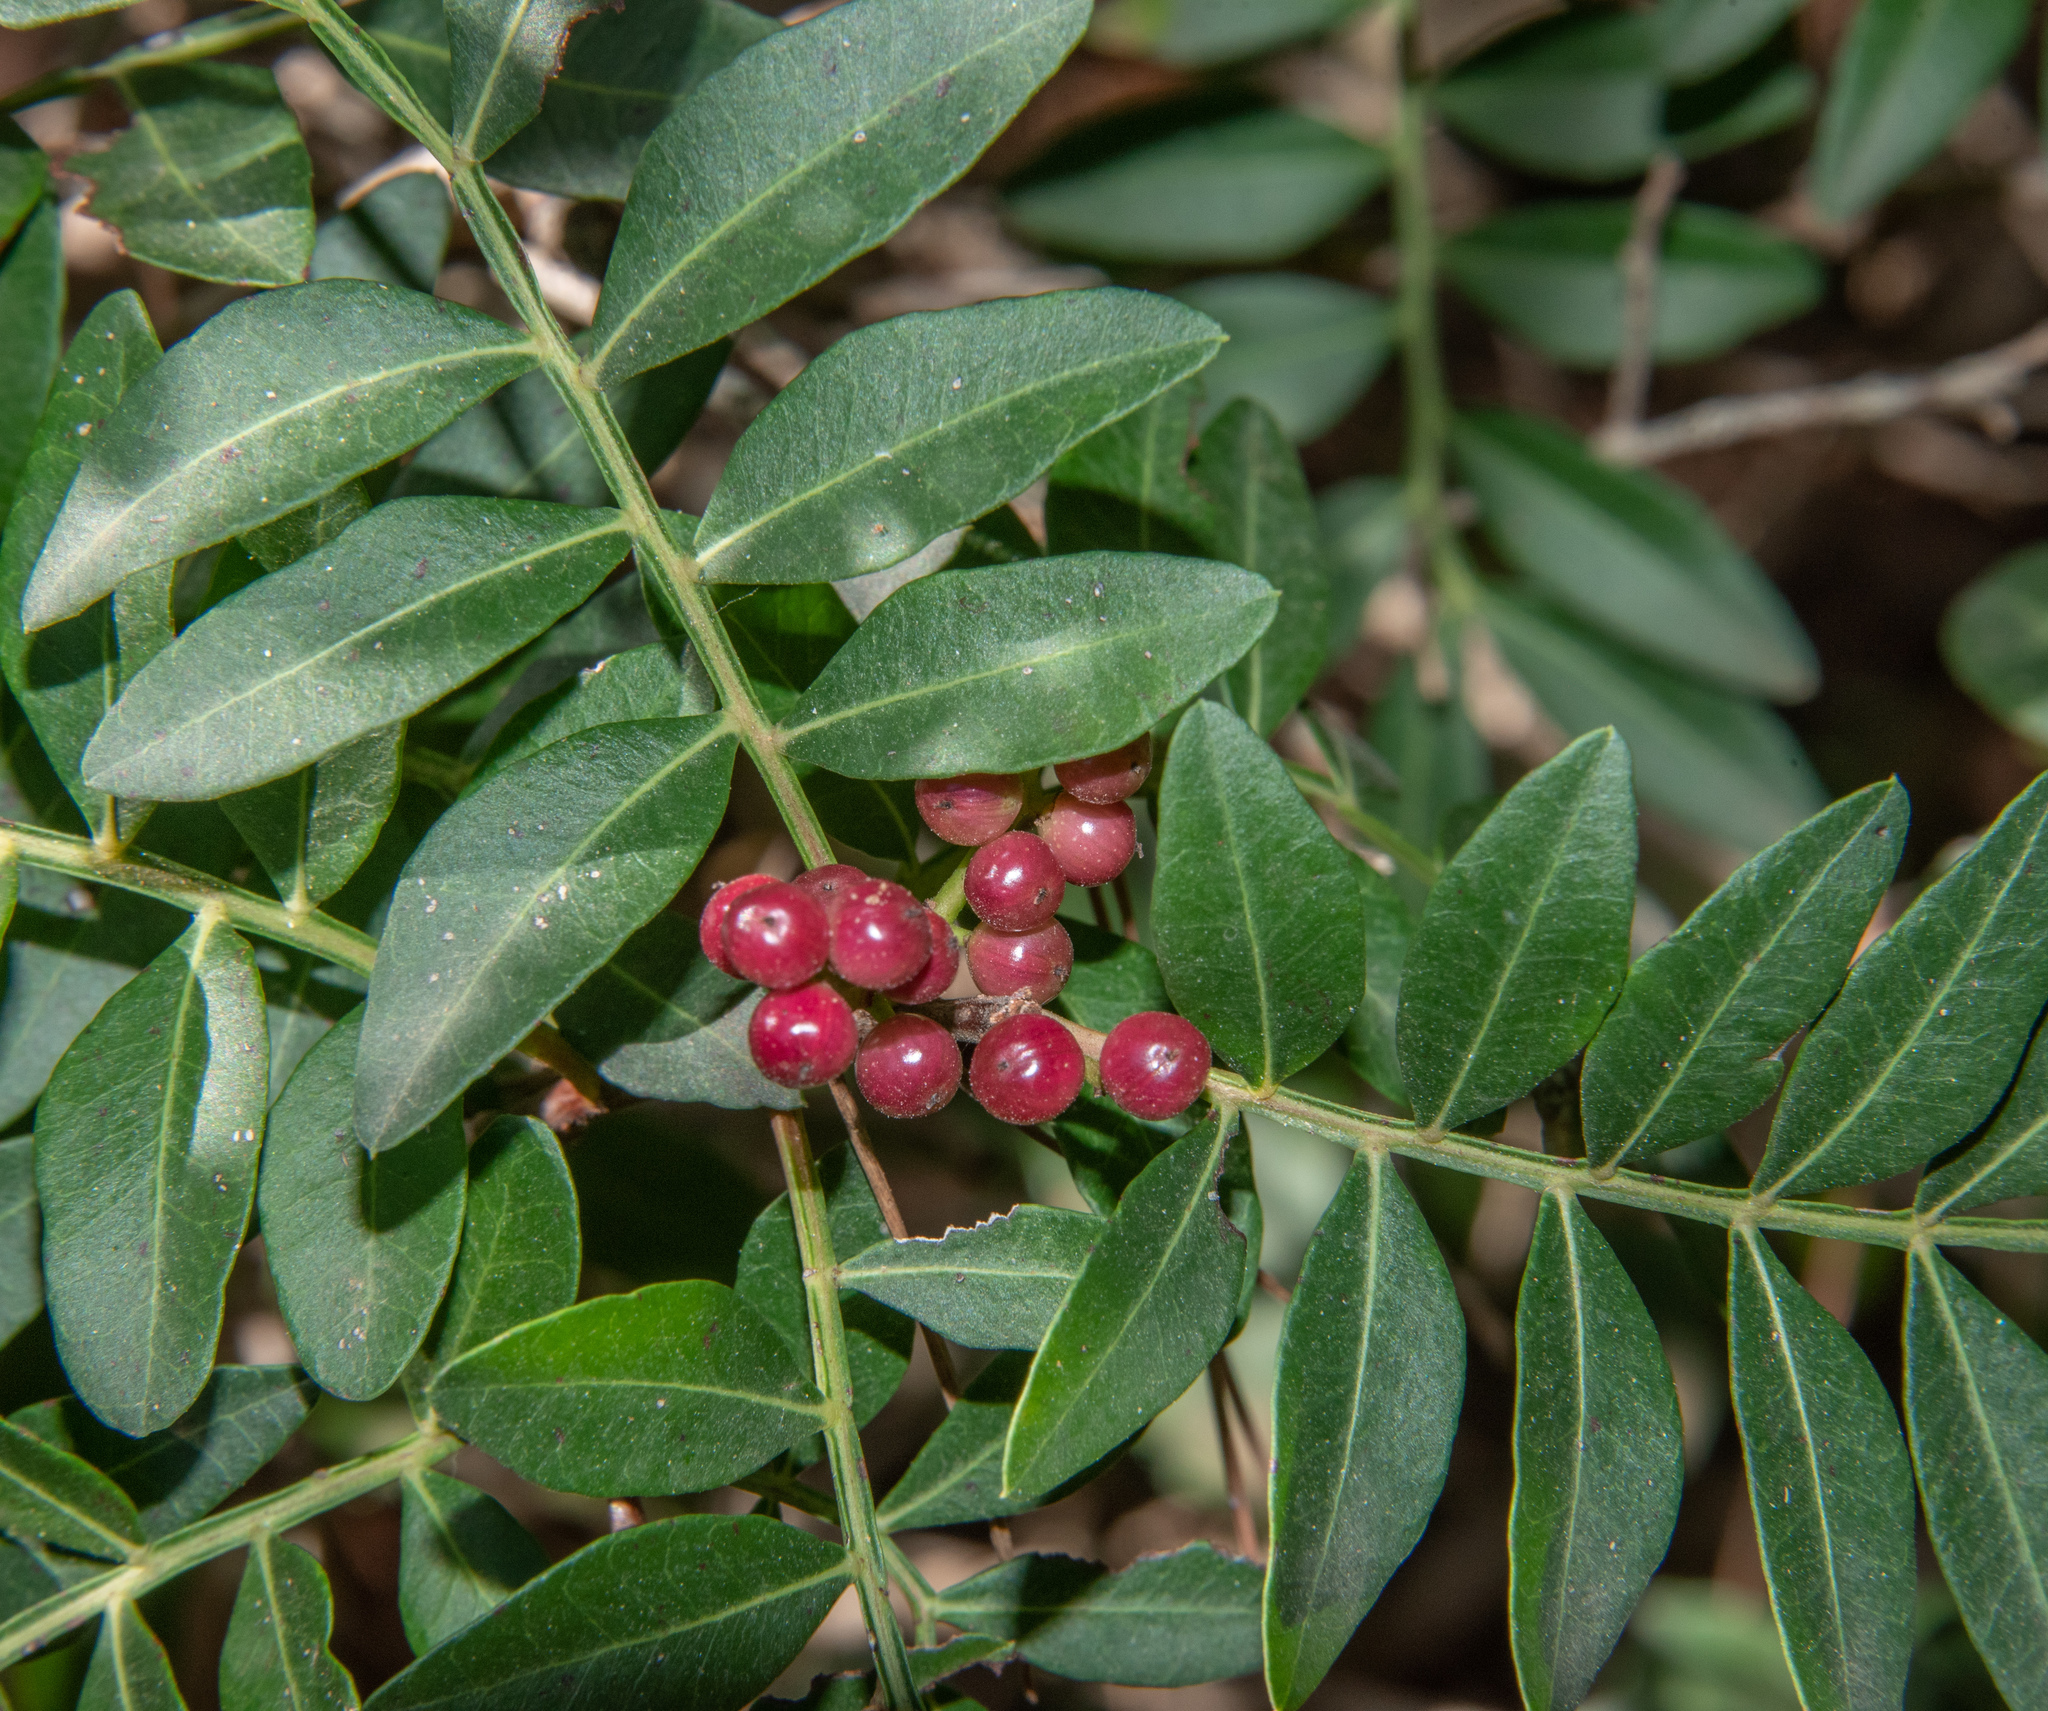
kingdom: Plantae
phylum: Tracheophyta
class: Magnoliopsida
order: Sapindales
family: Anacardiaceae
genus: Pistacia
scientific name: Pistacia lentiscus
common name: Lentisk
